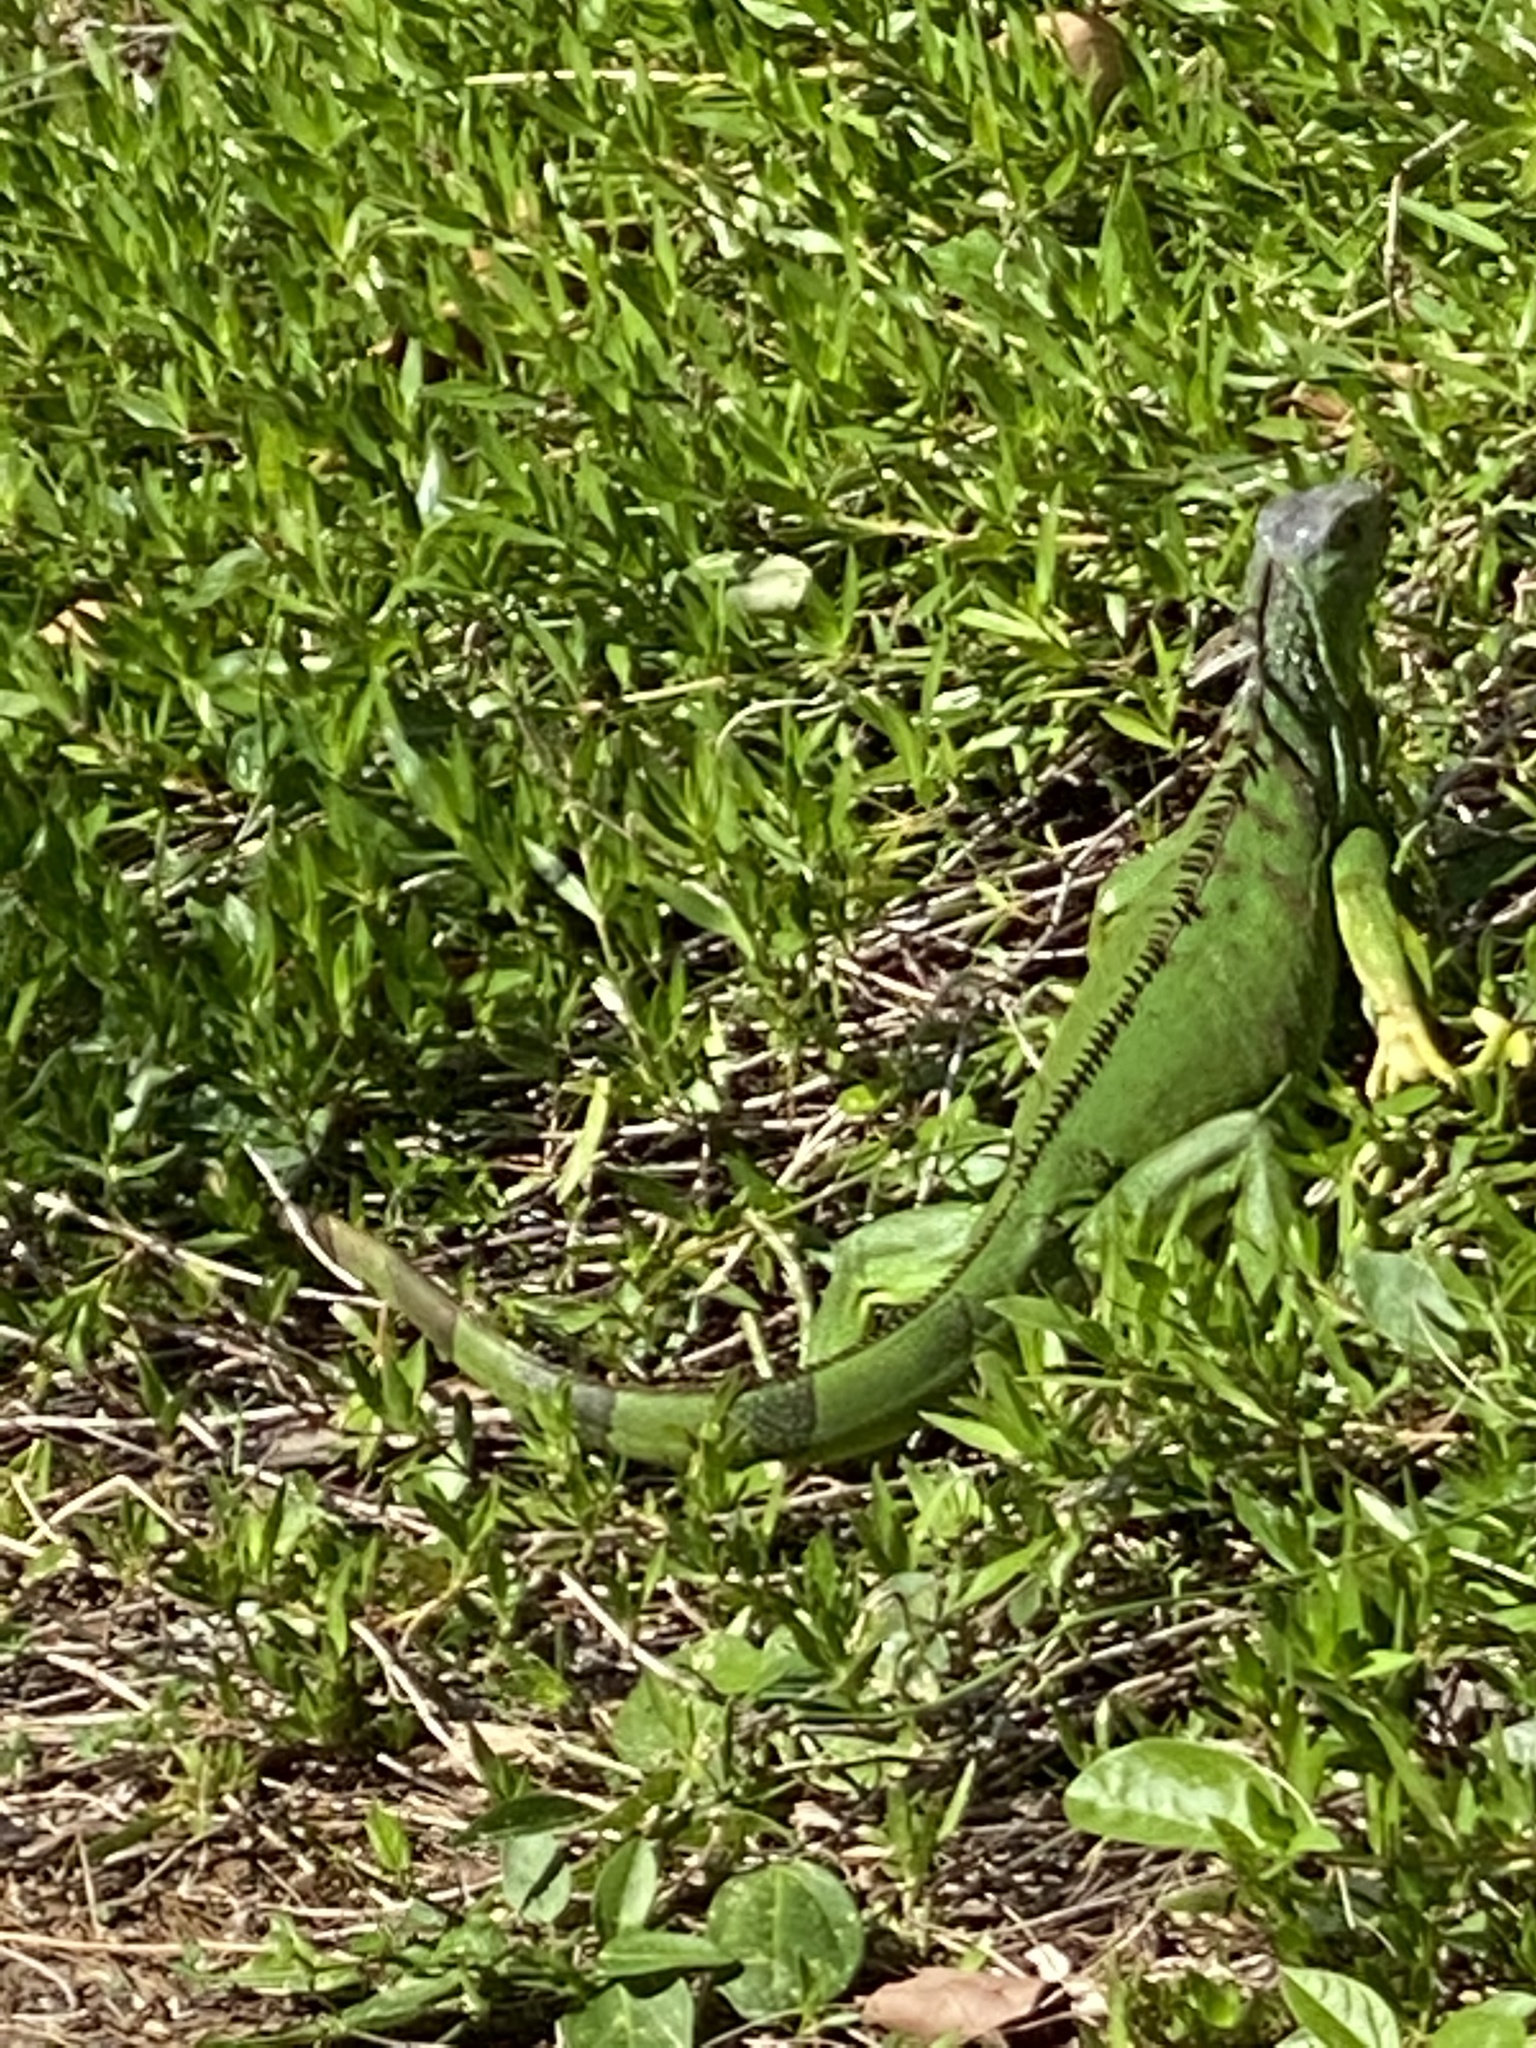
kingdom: Animalia
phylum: Chordata
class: Squamata
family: Iguanidae
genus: Iguana
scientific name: Iguana iguana
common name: Green iguana
